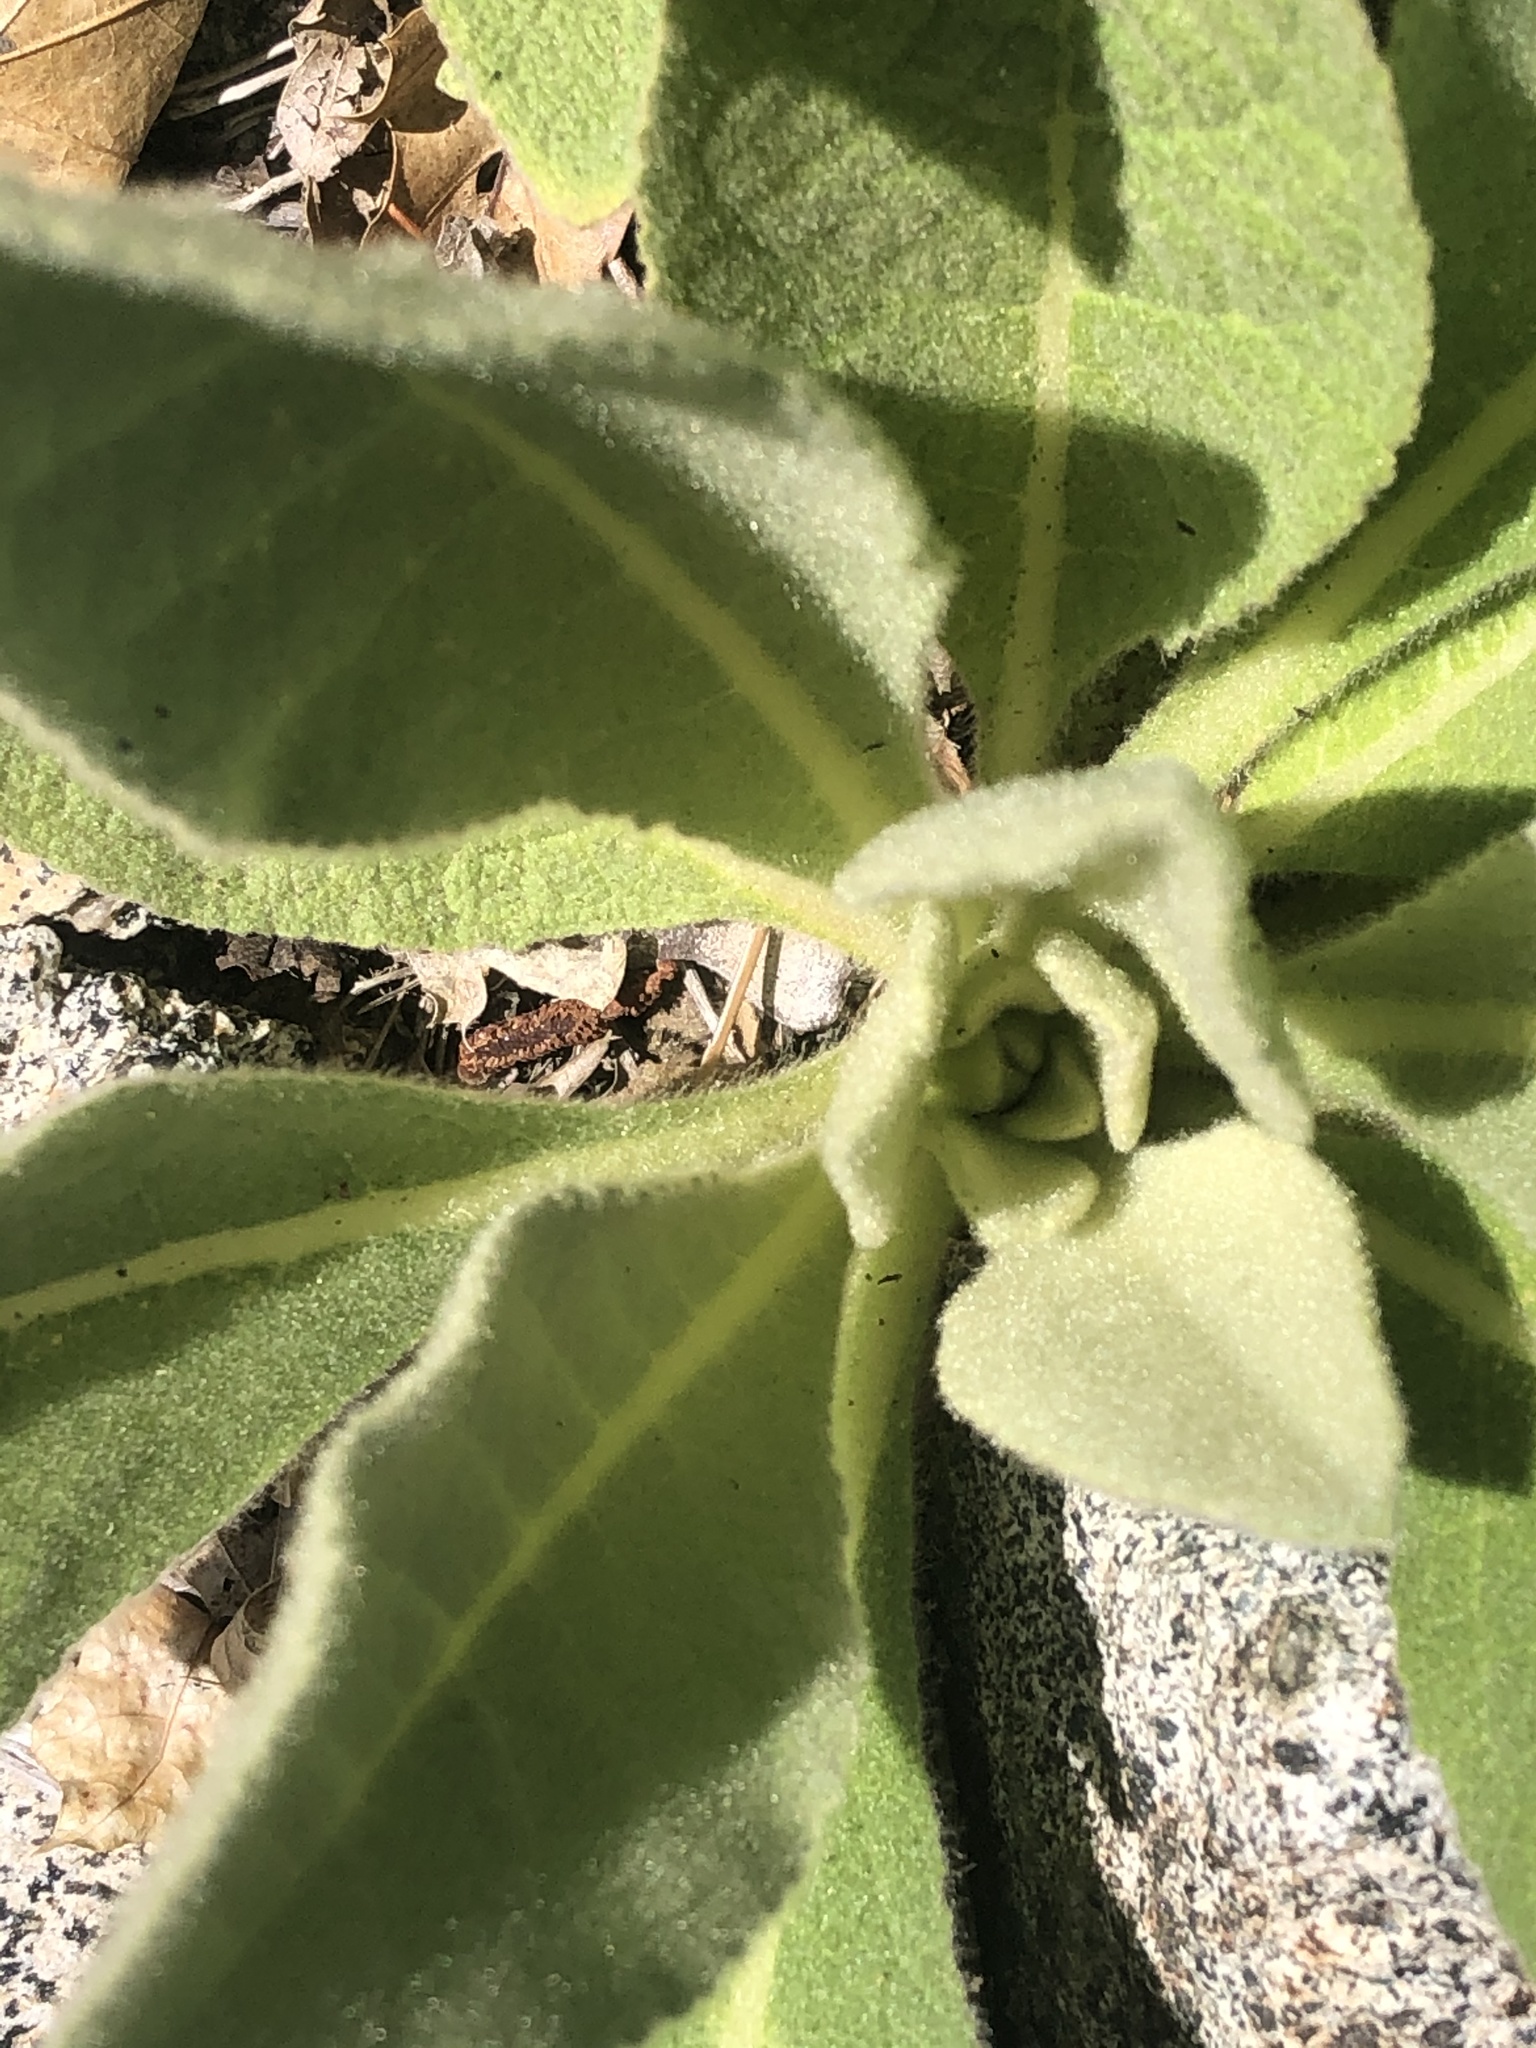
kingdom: Plantae
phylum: Tracheophyta
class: Magnoliopsida
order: Lamiales
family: Scrophulariaceae
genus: Verbascum
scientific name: Verbascum thapsus
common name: Common mullein
